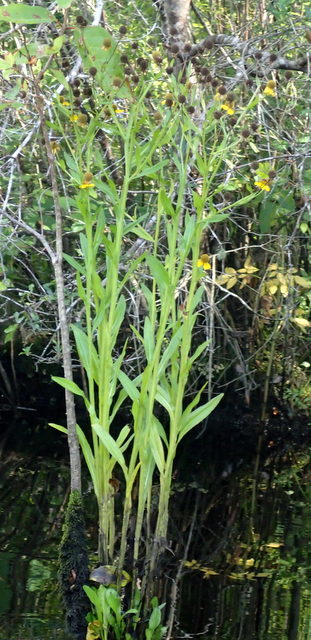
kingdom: Plantae
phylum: Tracheophyta
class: Magnoliopsida
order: Asterales
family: Asteraceae
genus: Helenium
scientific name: Helenium autumnale
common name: Sneezeweed
